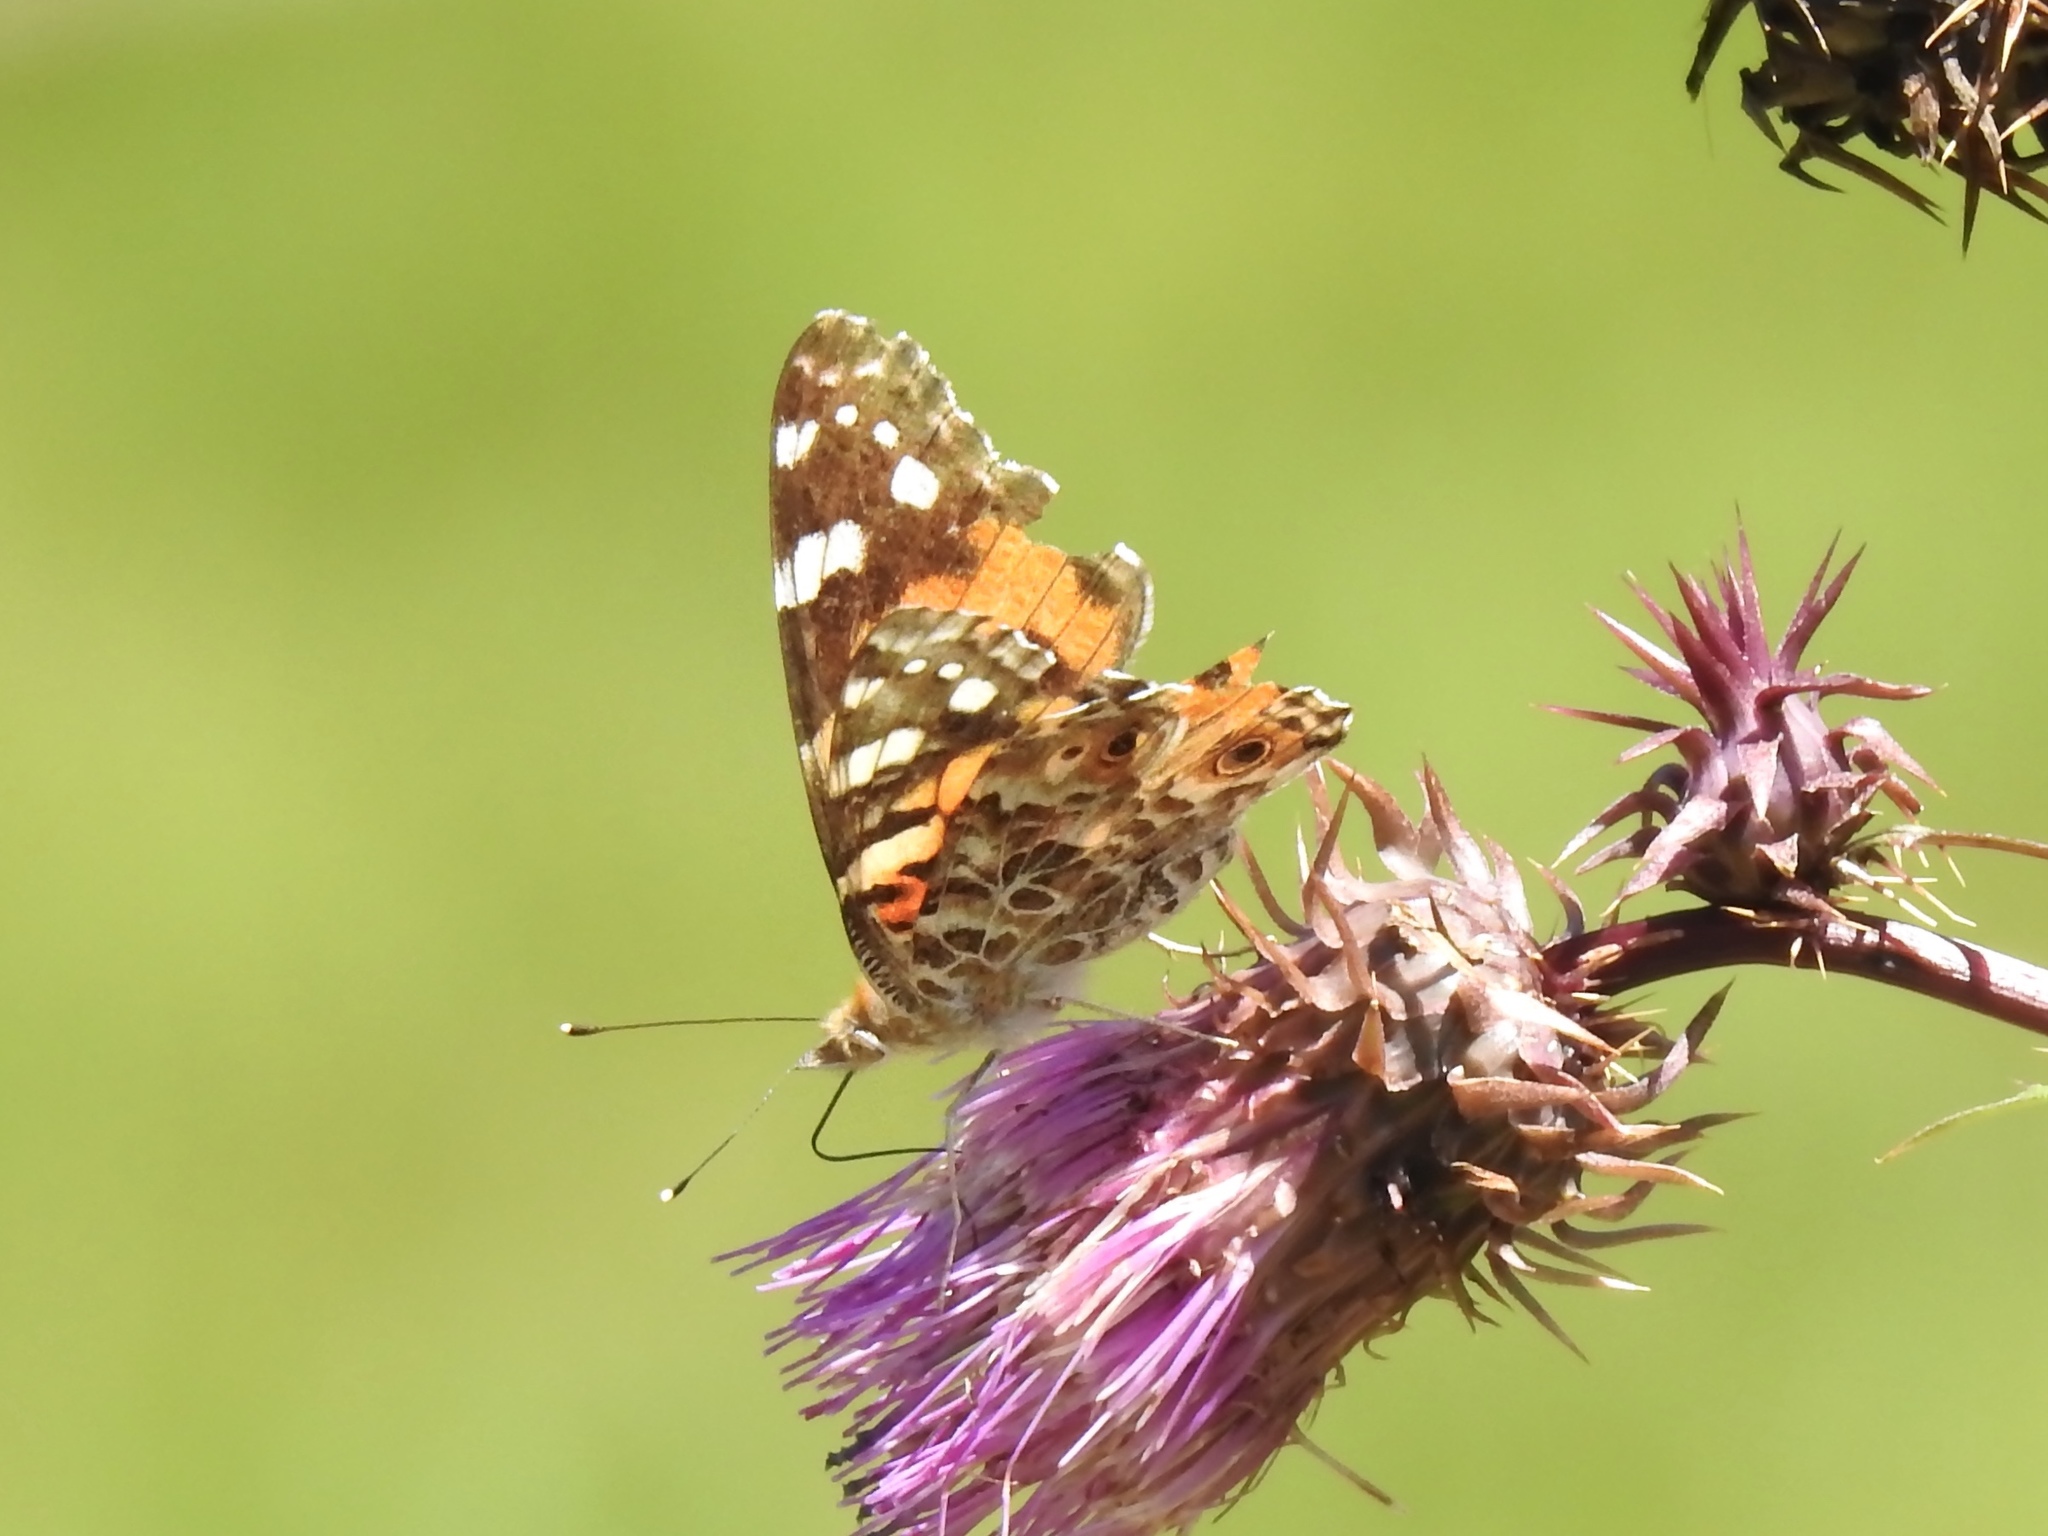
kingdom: Animalia
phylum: Arthropoda
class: Insecta
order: Lepidoptera
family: Nymphalidae
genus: Vanessa
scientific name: Vanessa cardui
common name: Painted lady
